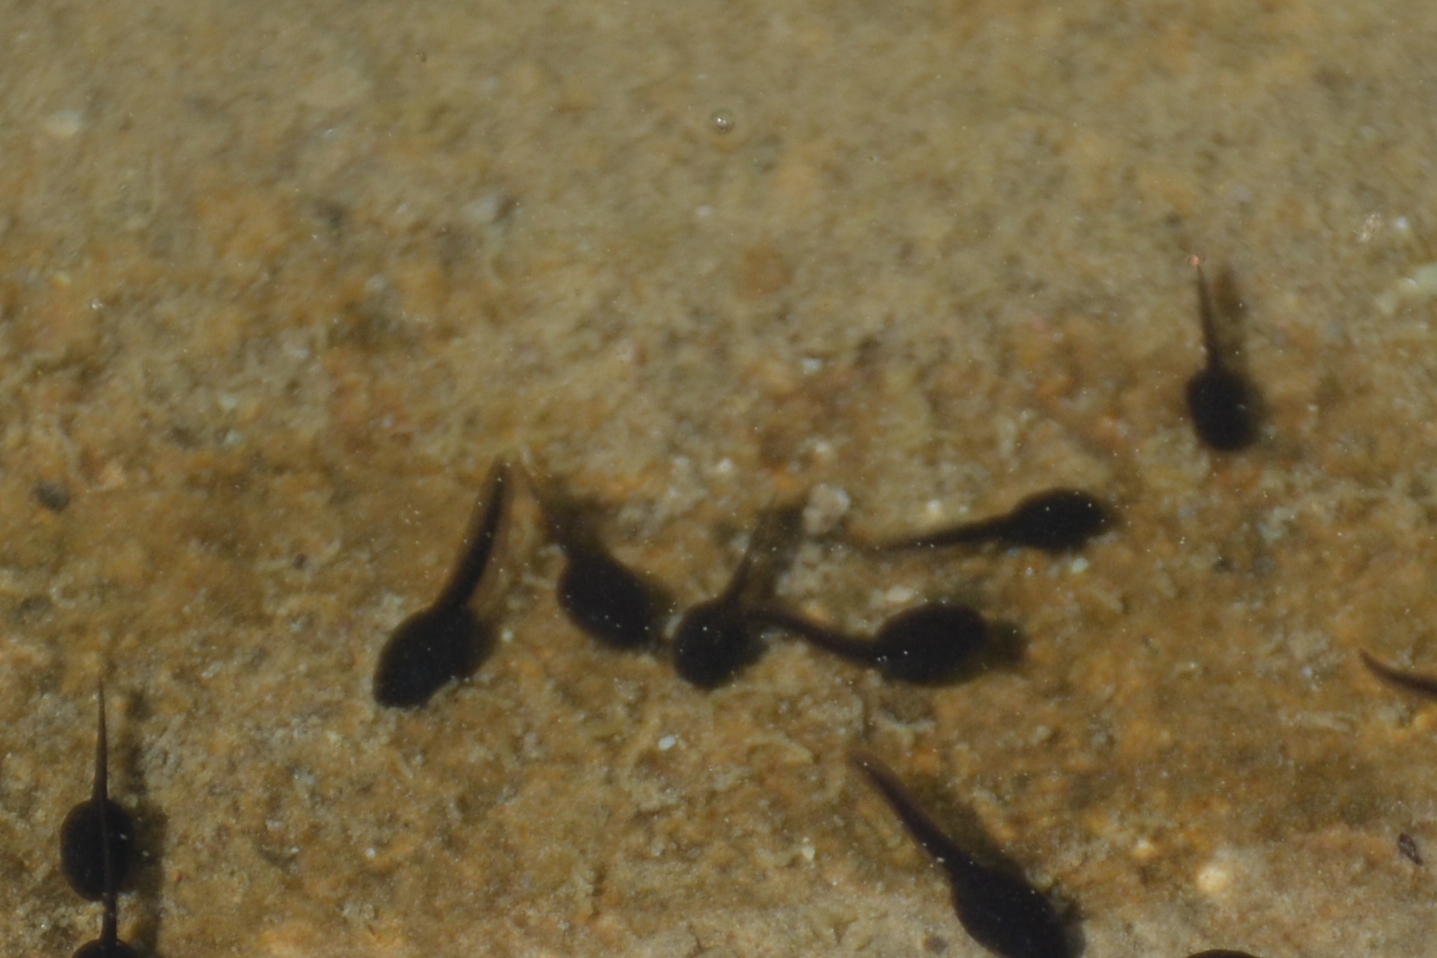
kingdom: Animalia
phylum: Chordata
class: Amphibia
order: Anura
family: Bufonidae
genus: Bufotes
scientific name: Bufotes viridis
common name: European green toad
